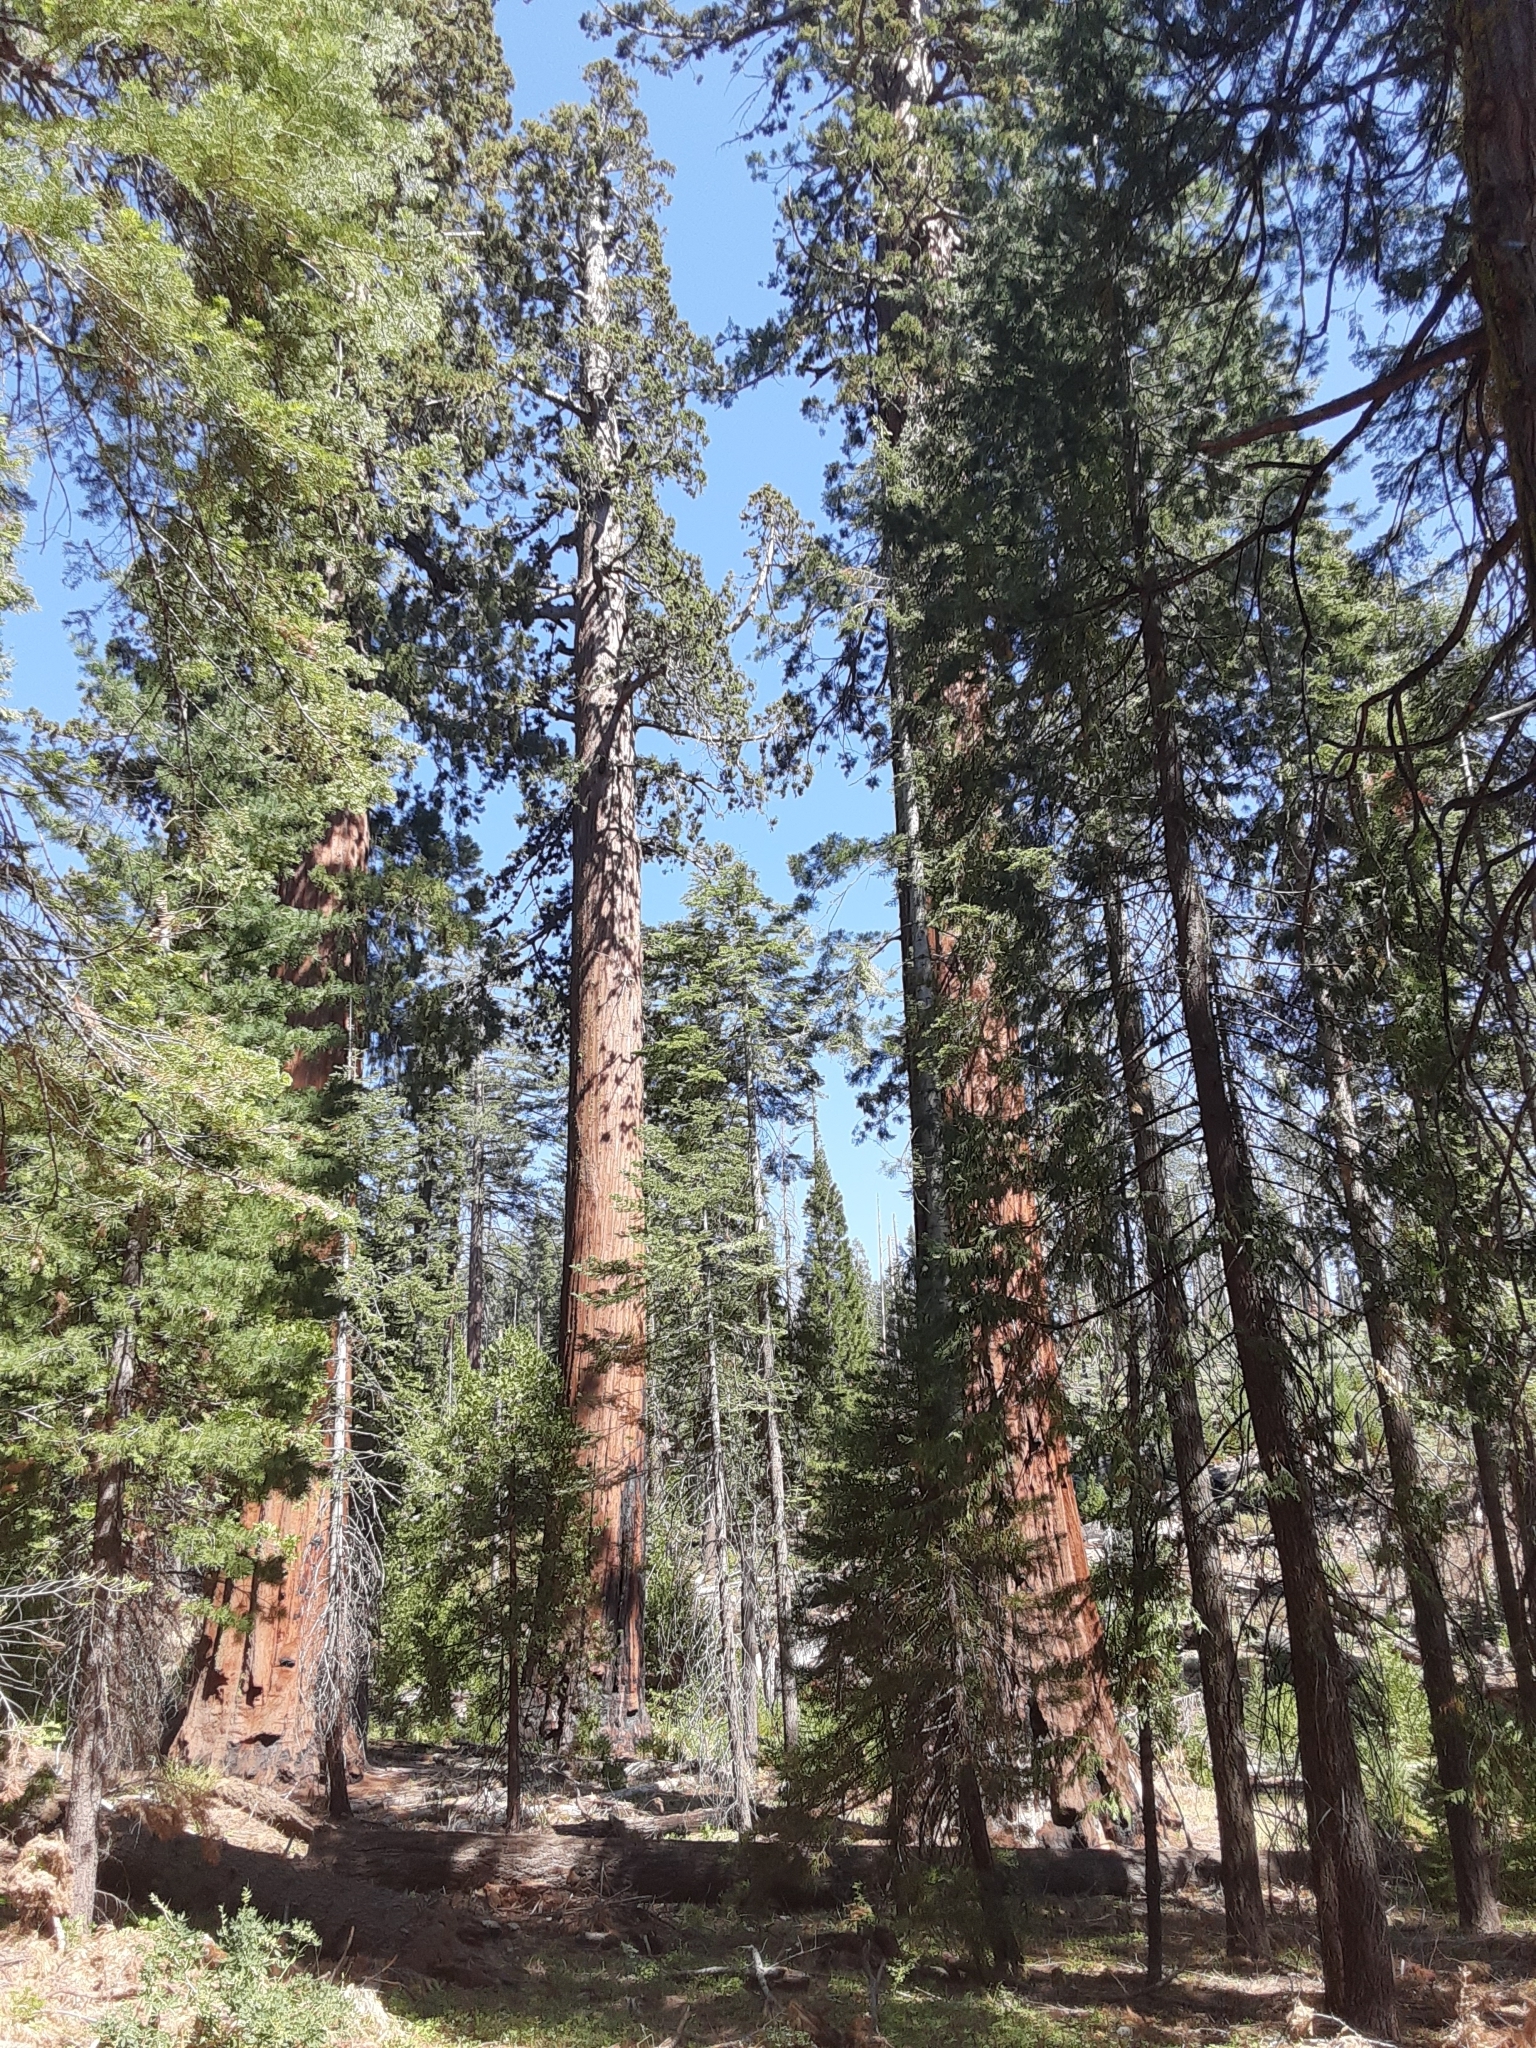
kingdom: Plantae
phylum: Tracheophyta
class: Pinopsida
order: Pinales
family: Cupressaceae
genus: Sequoiadendron
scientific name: Sequoiadendron giganteum
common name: Wellingtonia
